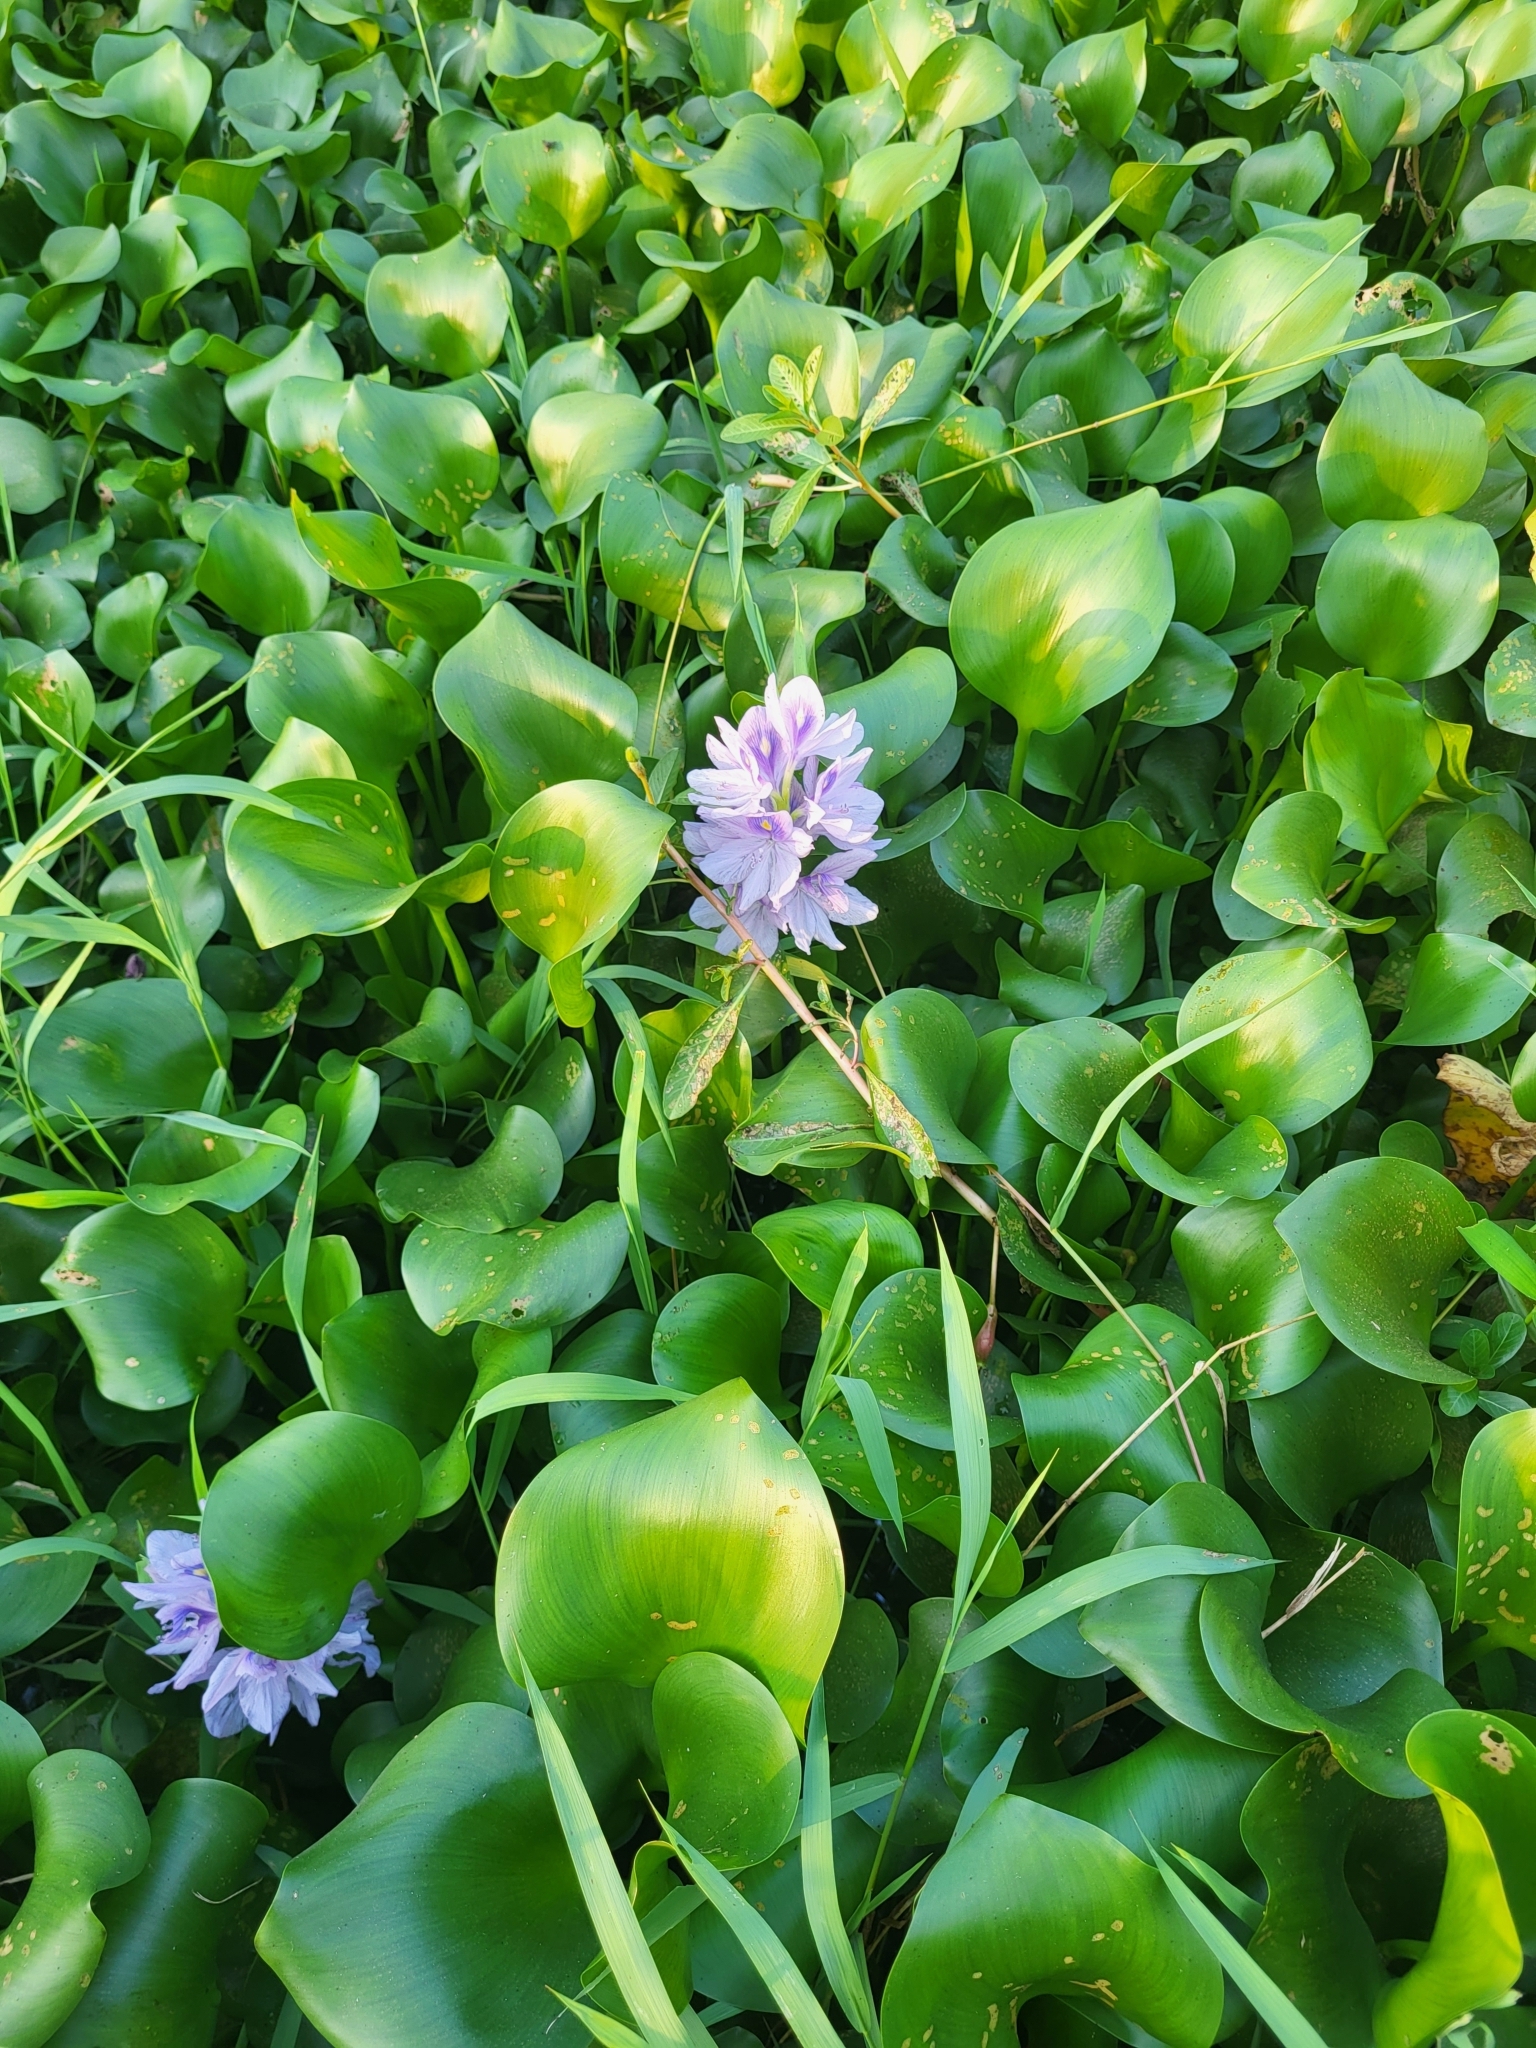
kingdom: Plantae
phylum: Tracheophyta
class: Liliopsida
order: Commelinales
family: Pontederiaceae
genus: Pontederia
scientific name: Pontederia crassipes
